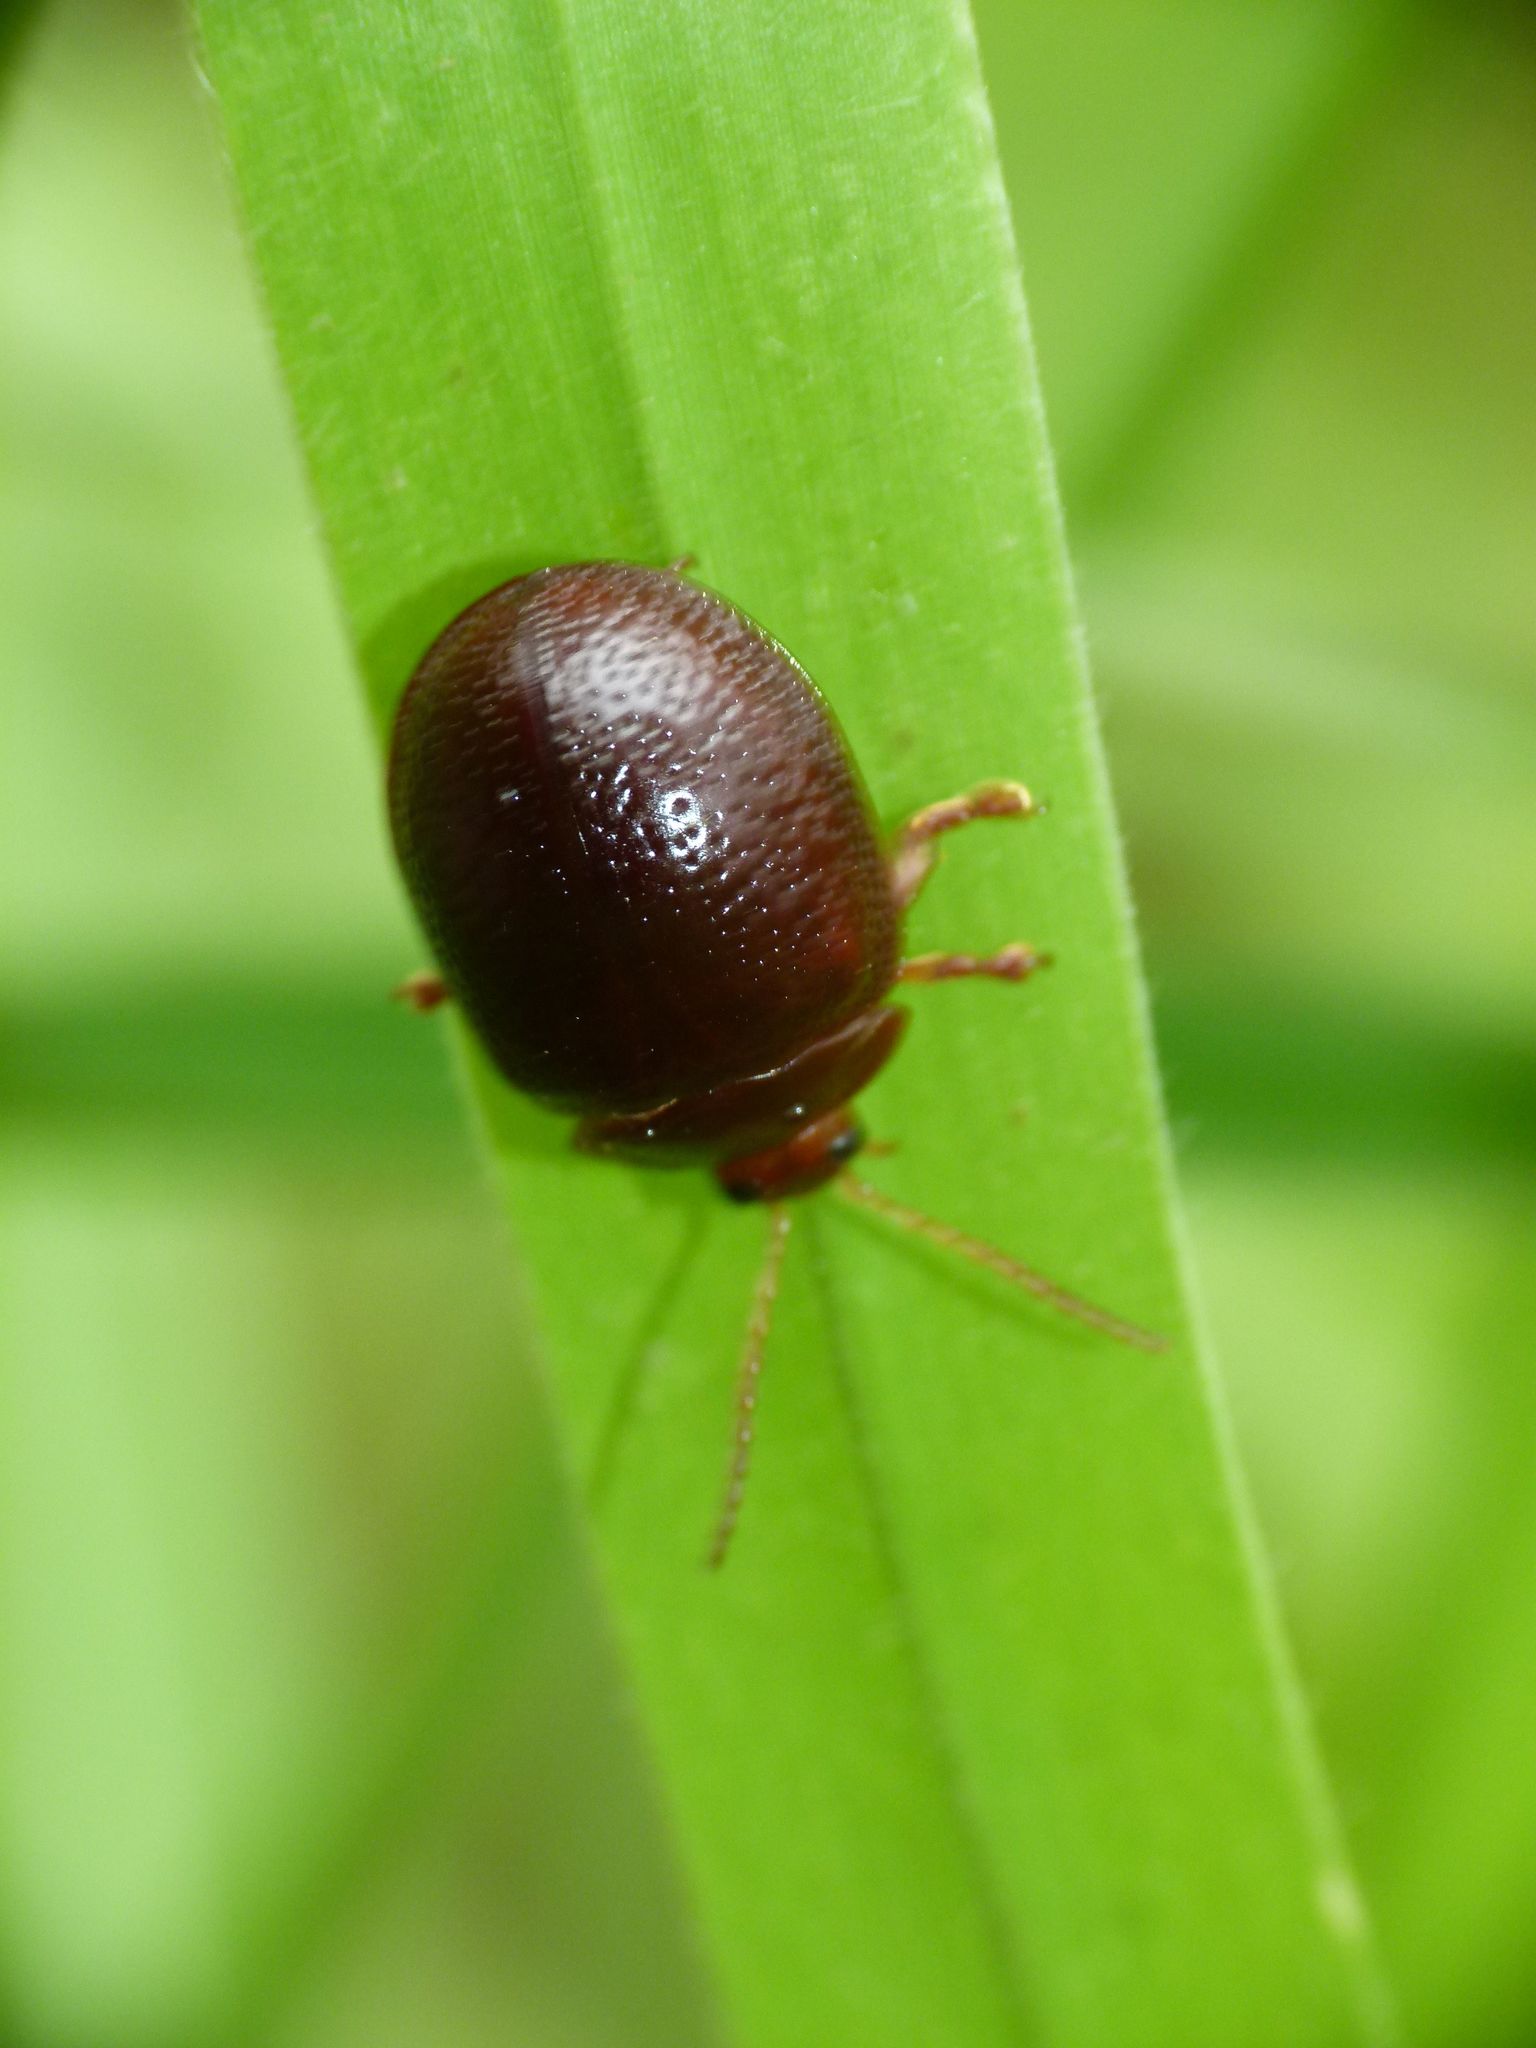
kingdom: Animalia
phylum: Arthropoda
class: Insecta
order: Coleoptera
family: Chrysomelidae
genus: Dicranosterna
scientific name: Dicranosterna
